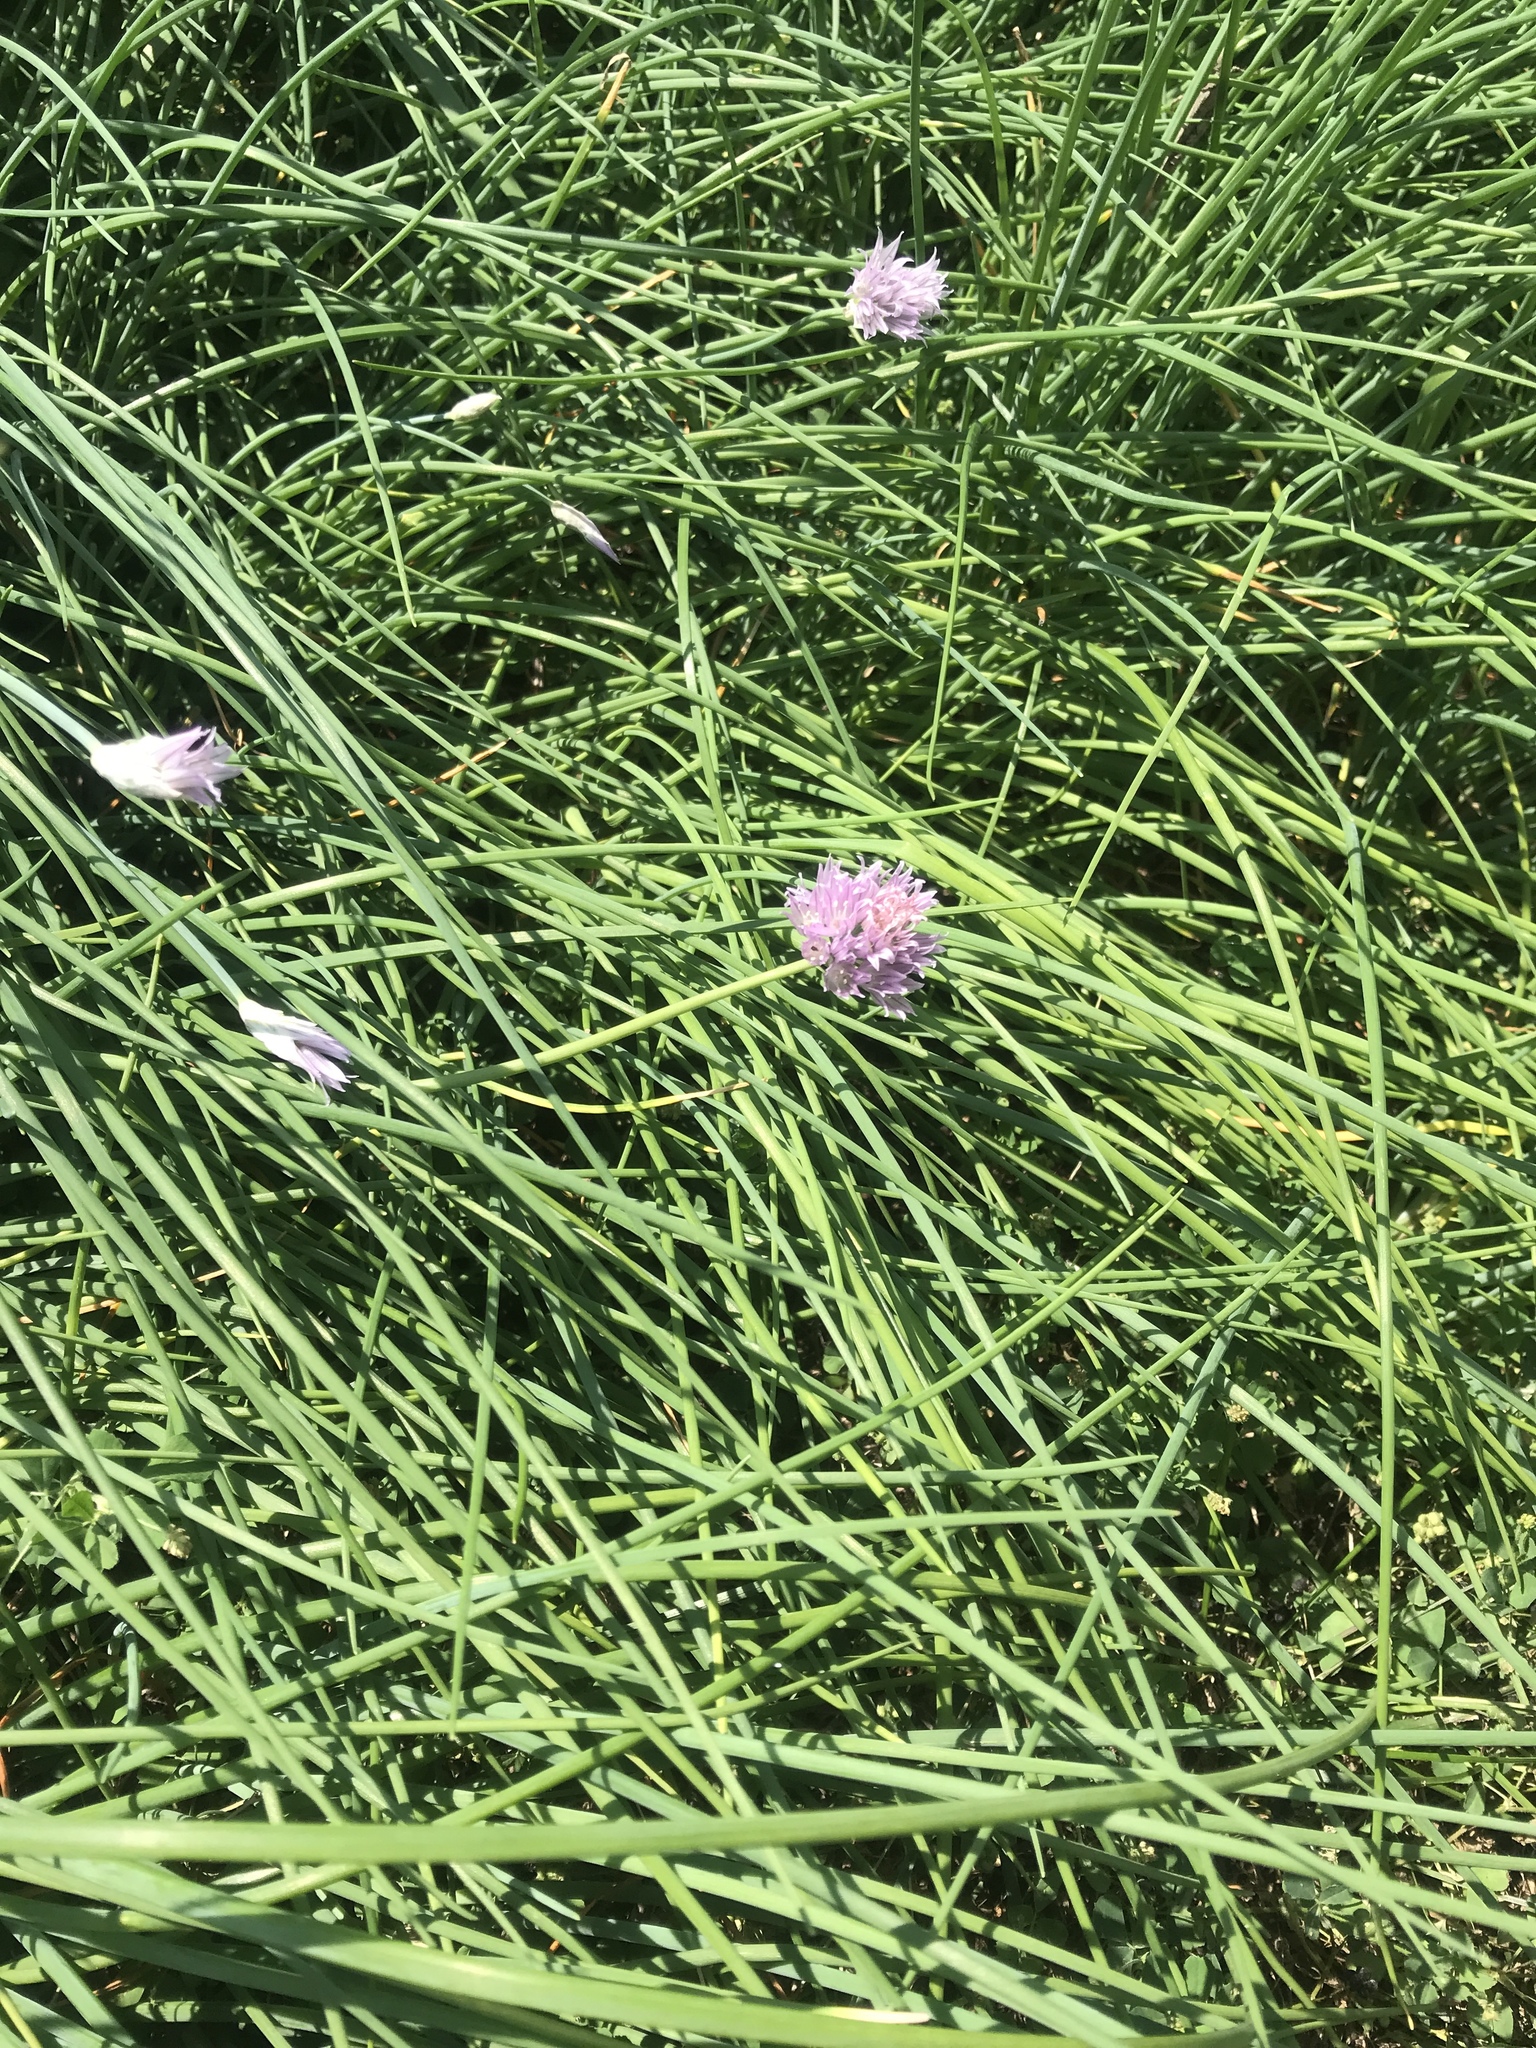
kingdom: Plantae
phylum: Tracheophyta
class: Liliopsida
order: Asparagales
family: Amaryllidaceae
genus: Allium
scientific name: Allium schoenoprasum
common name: Chives
